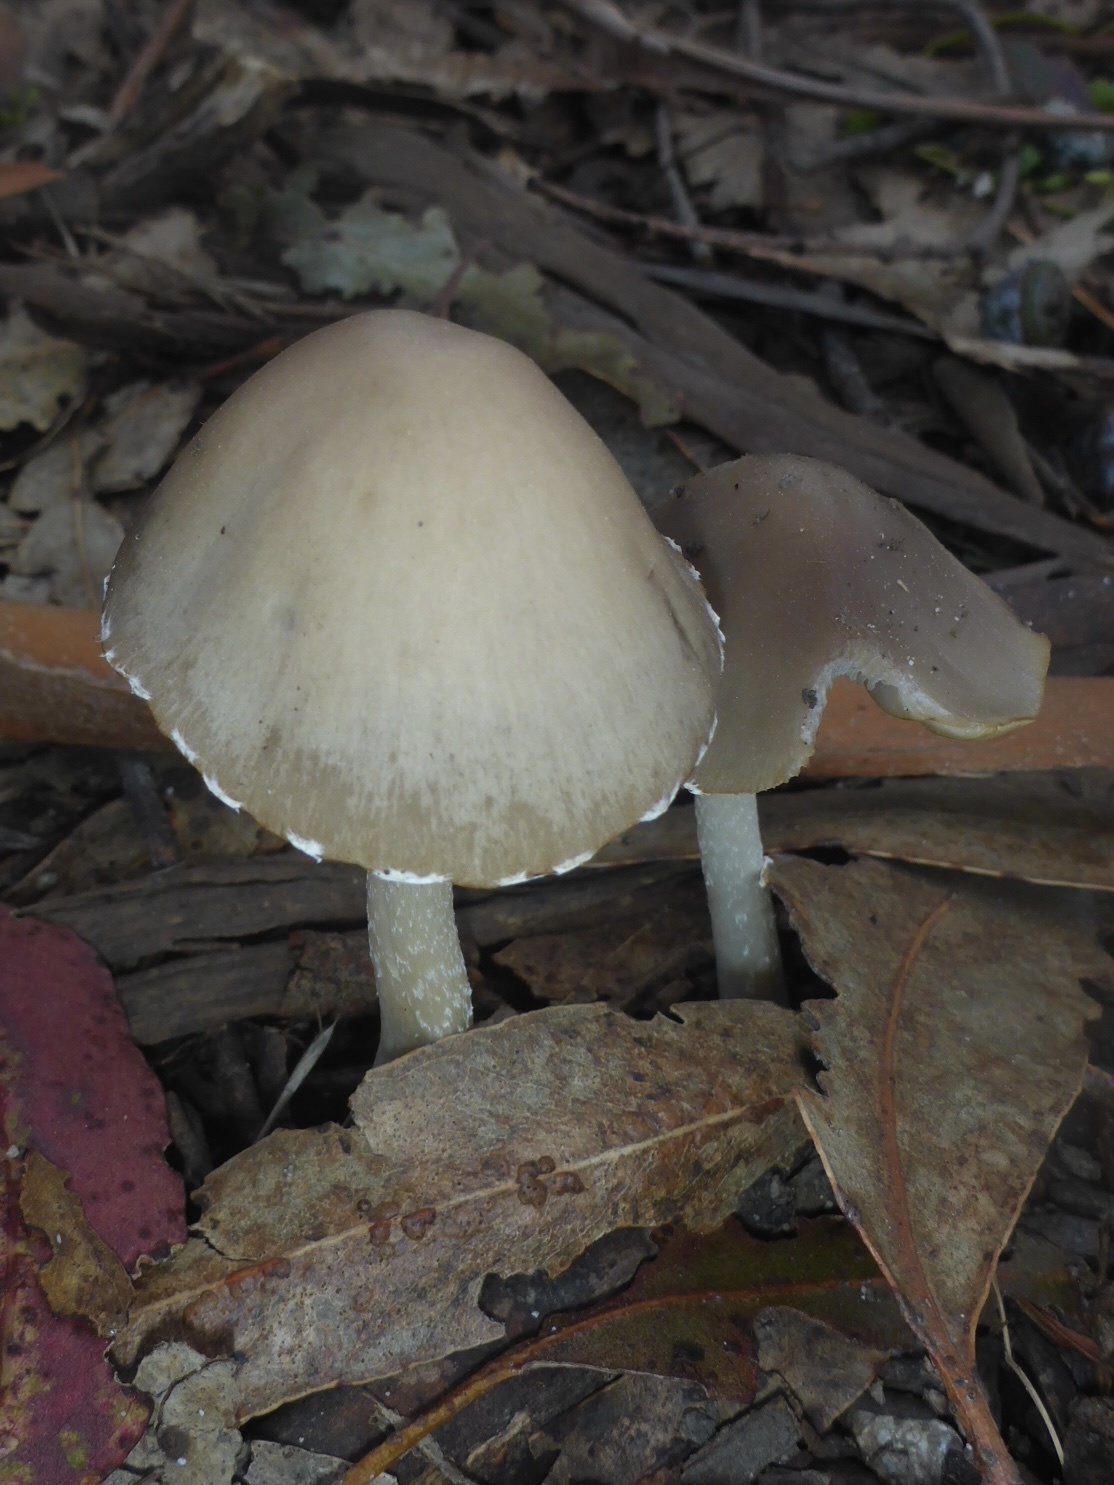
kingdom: Fungi
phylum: Basidiomycota
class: Agaricomycetes
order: Agaricales
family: Psathyrellaceae
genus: Psathyrella
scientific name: Psathyrella longipes
